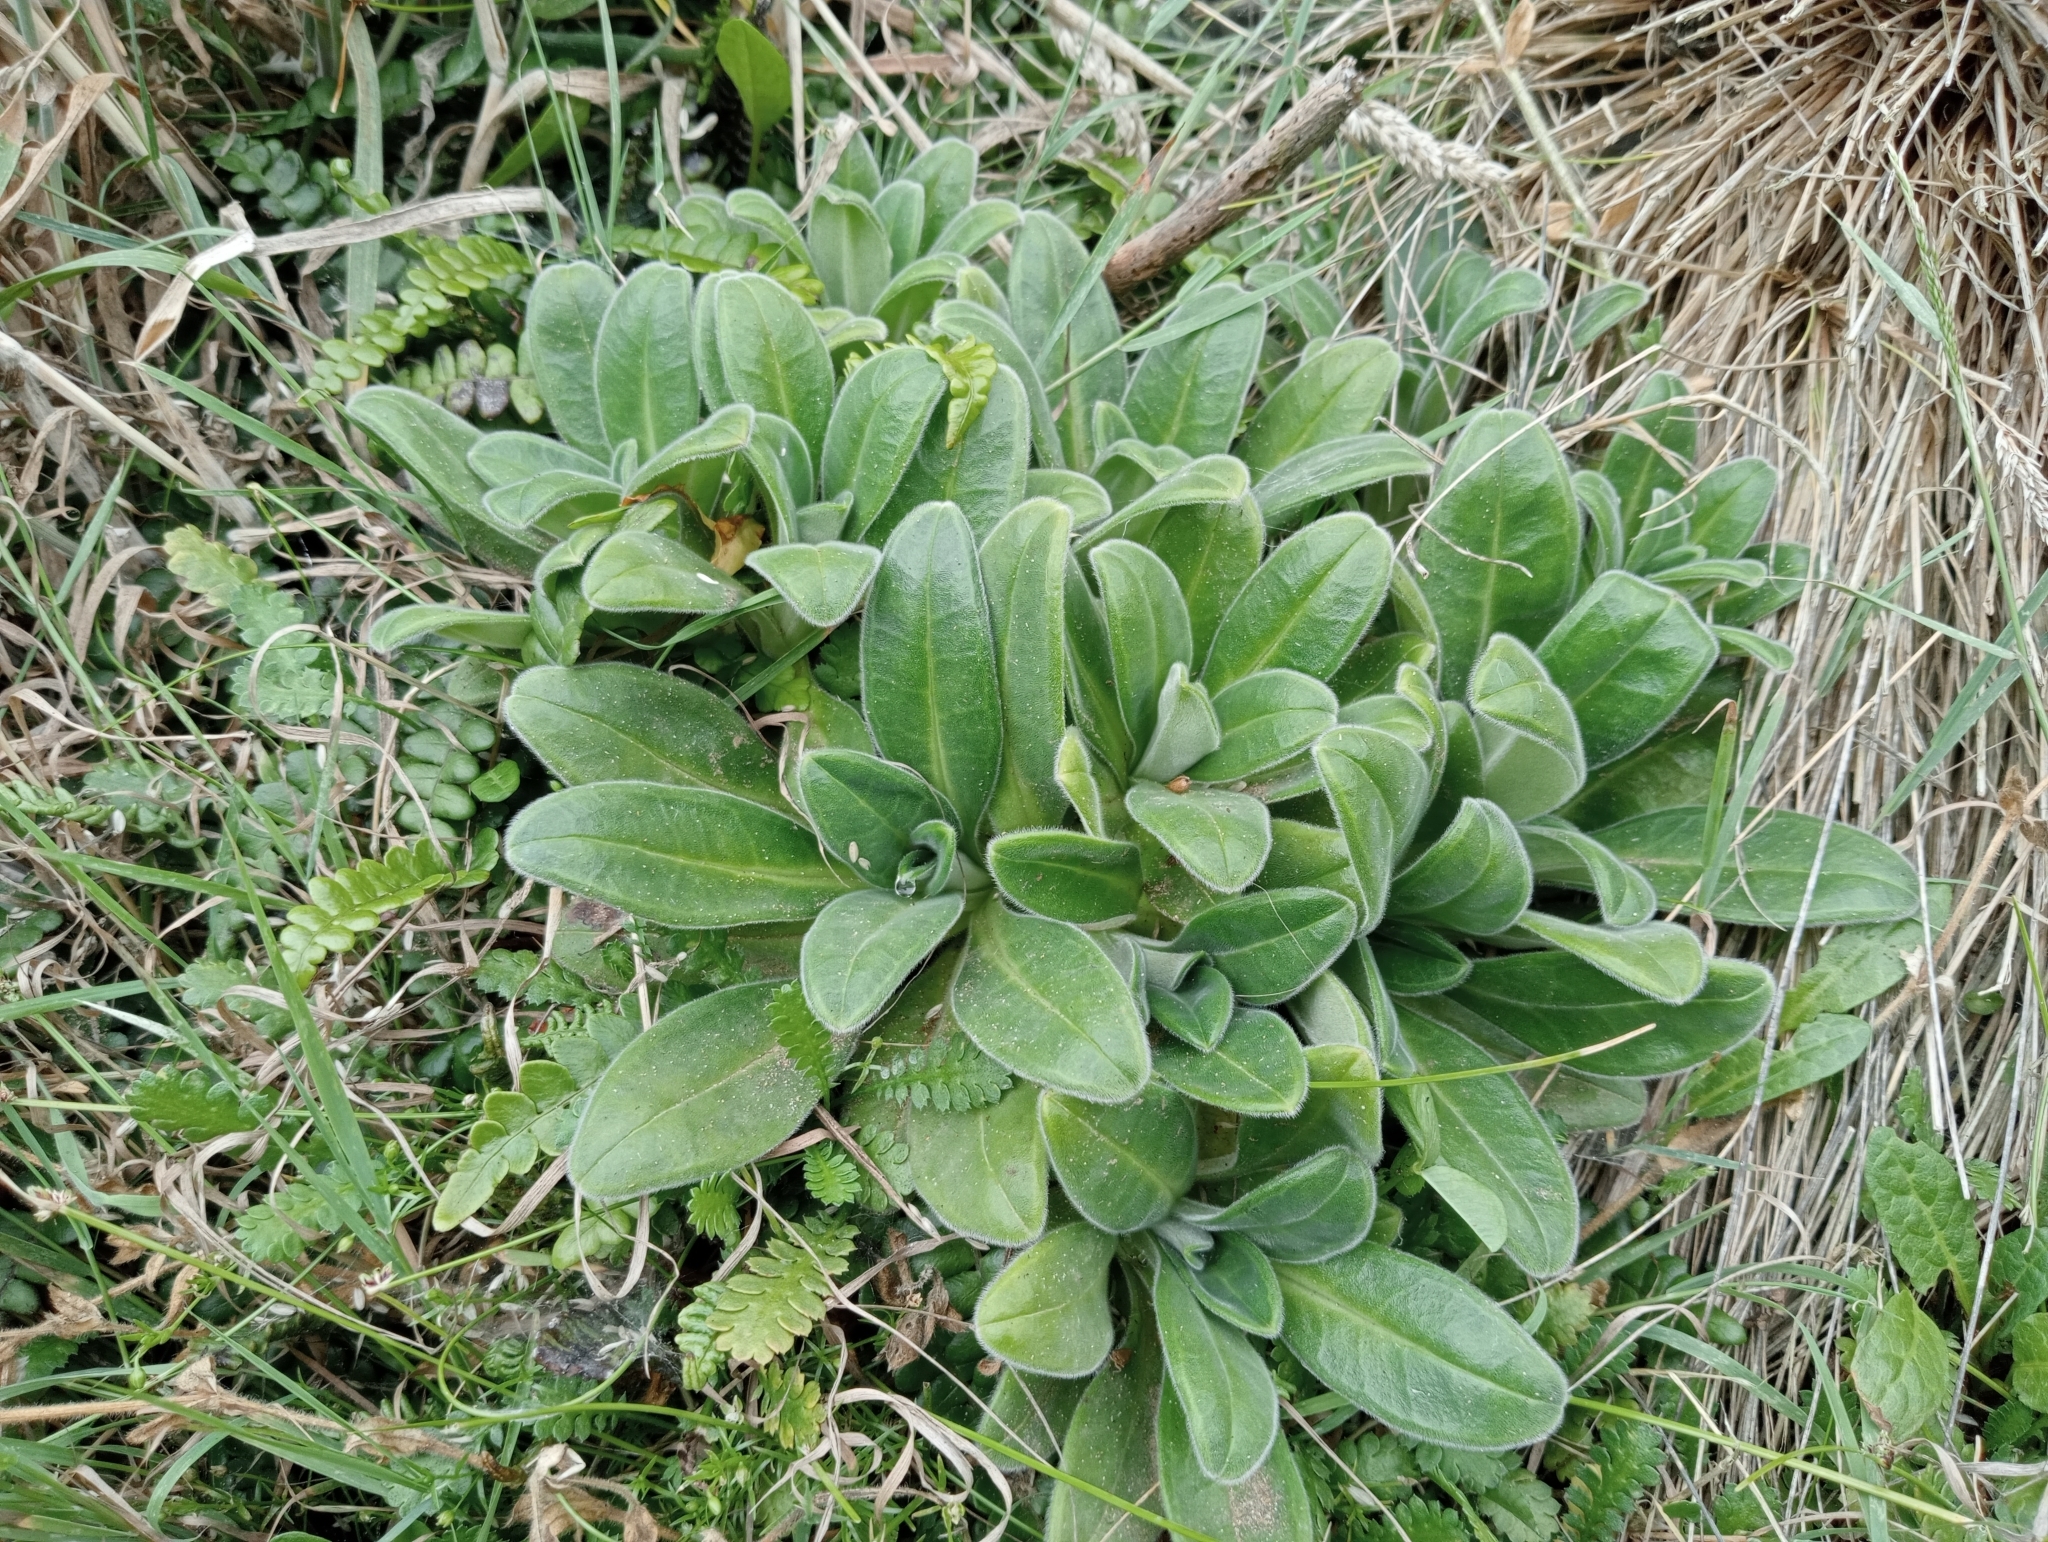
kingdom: Plantae
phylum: Tracheophyta
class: Magnoliopsida
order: Boraginales
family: Boraginaceae
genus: Myosotis
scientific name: Myosotis rakiura
